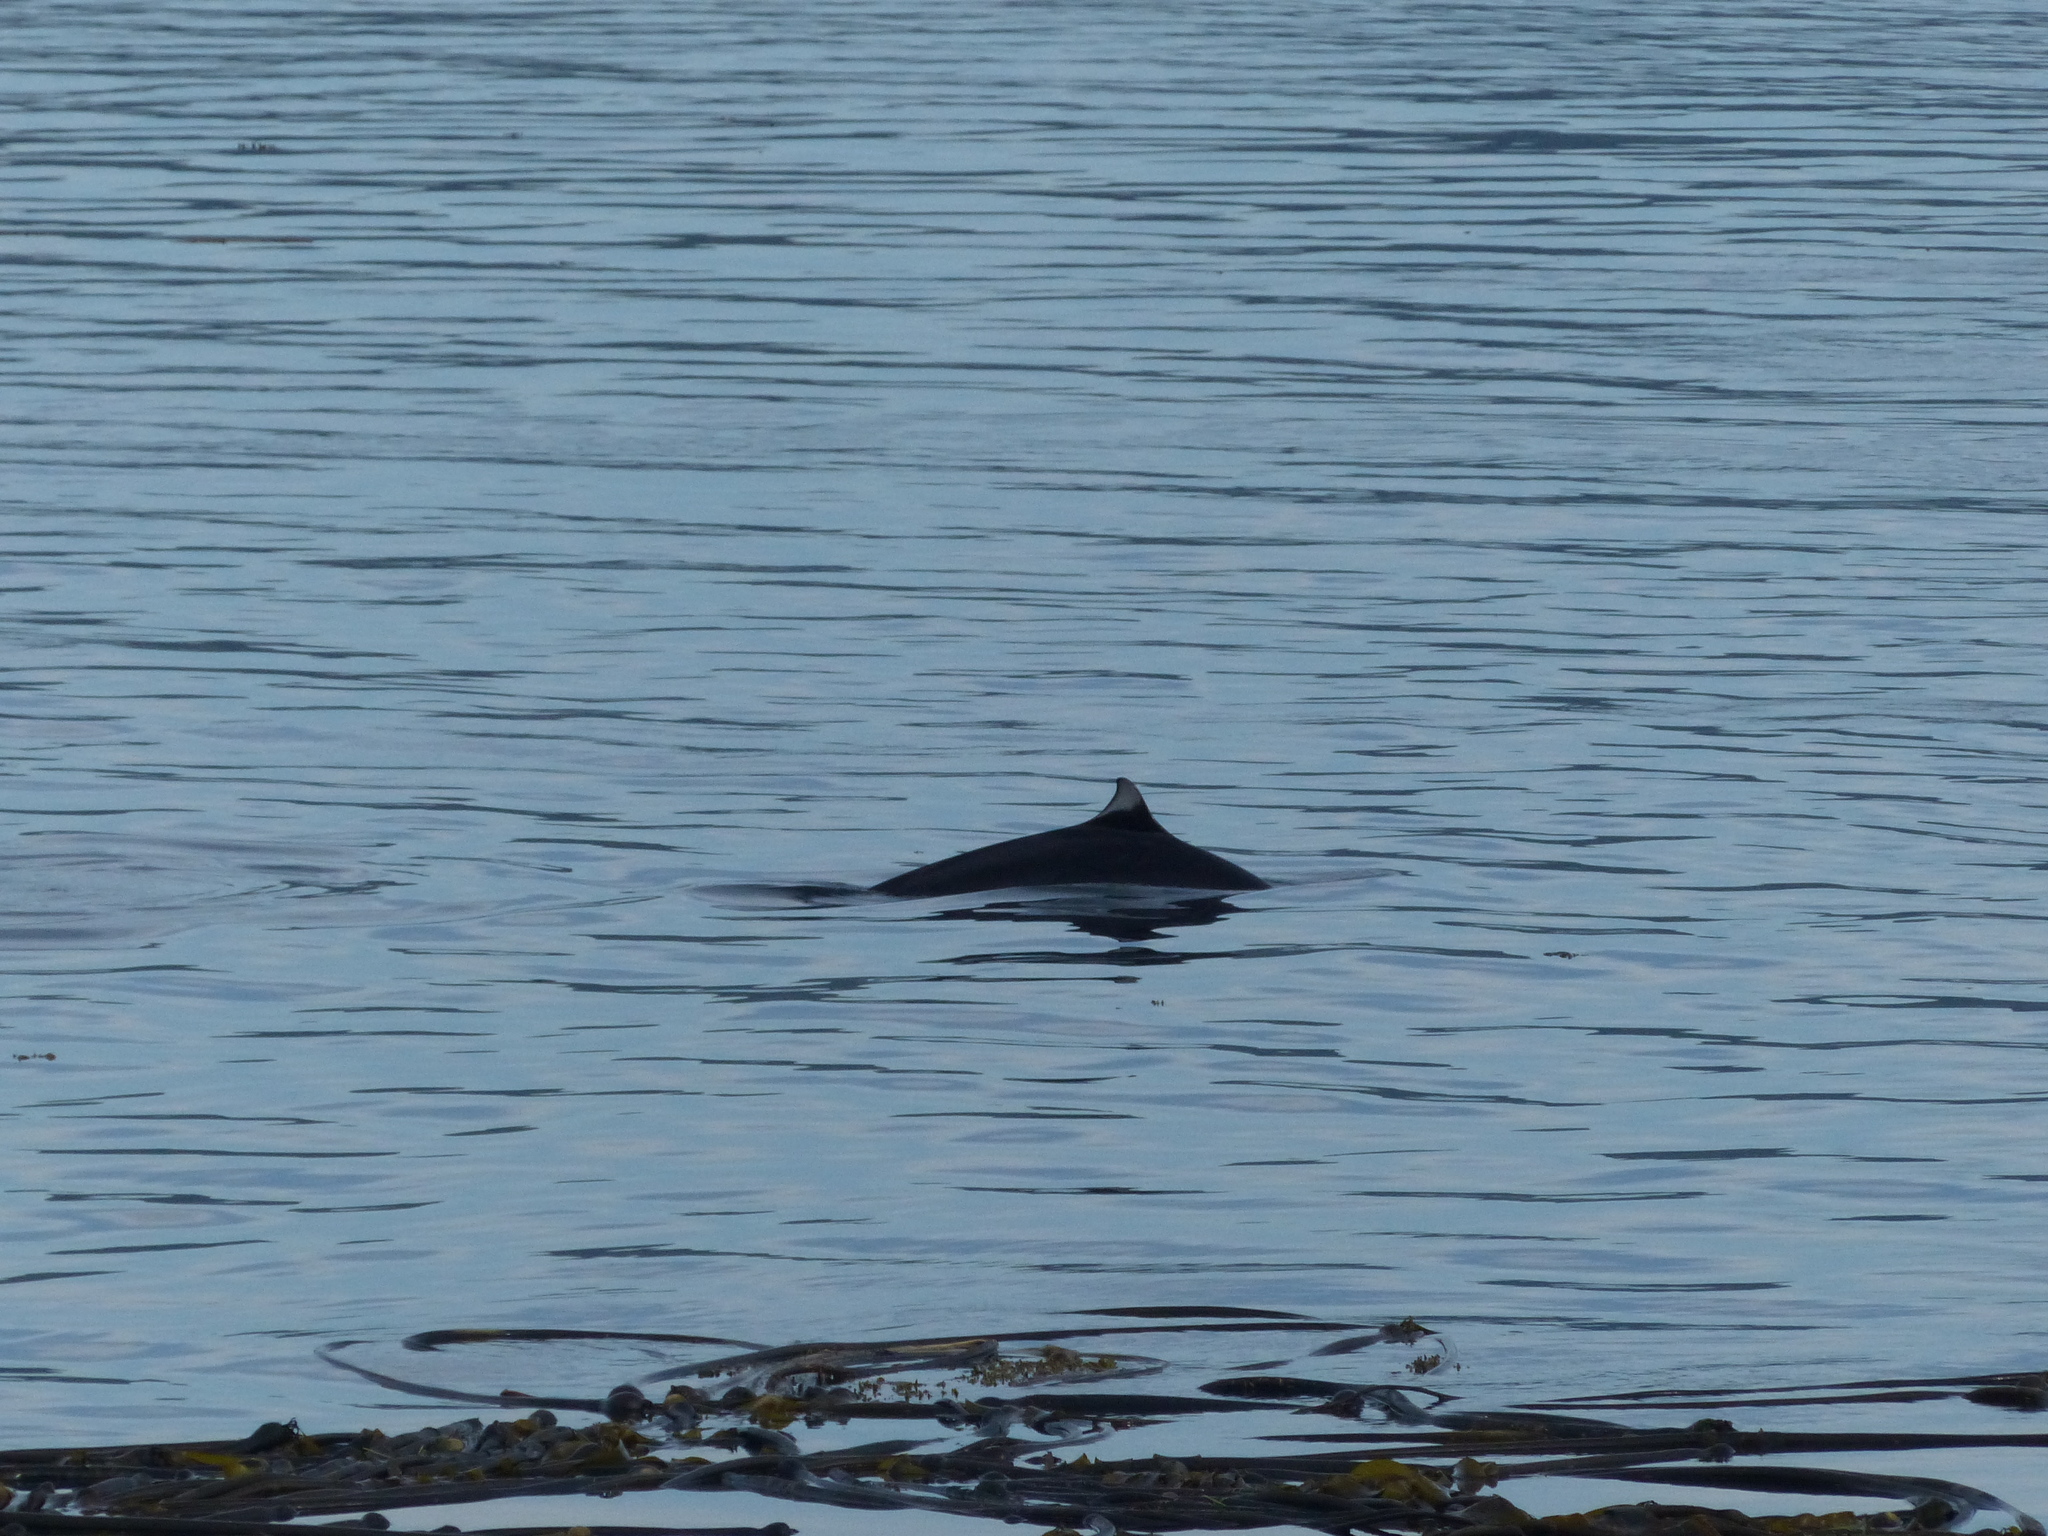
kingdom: Animalia
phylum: Chordata
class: Mammalia
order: Cetacea
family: Phocoenidae
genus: Phocoenoides
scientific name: Phocoenoides dalli
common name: Dall's porpoise
